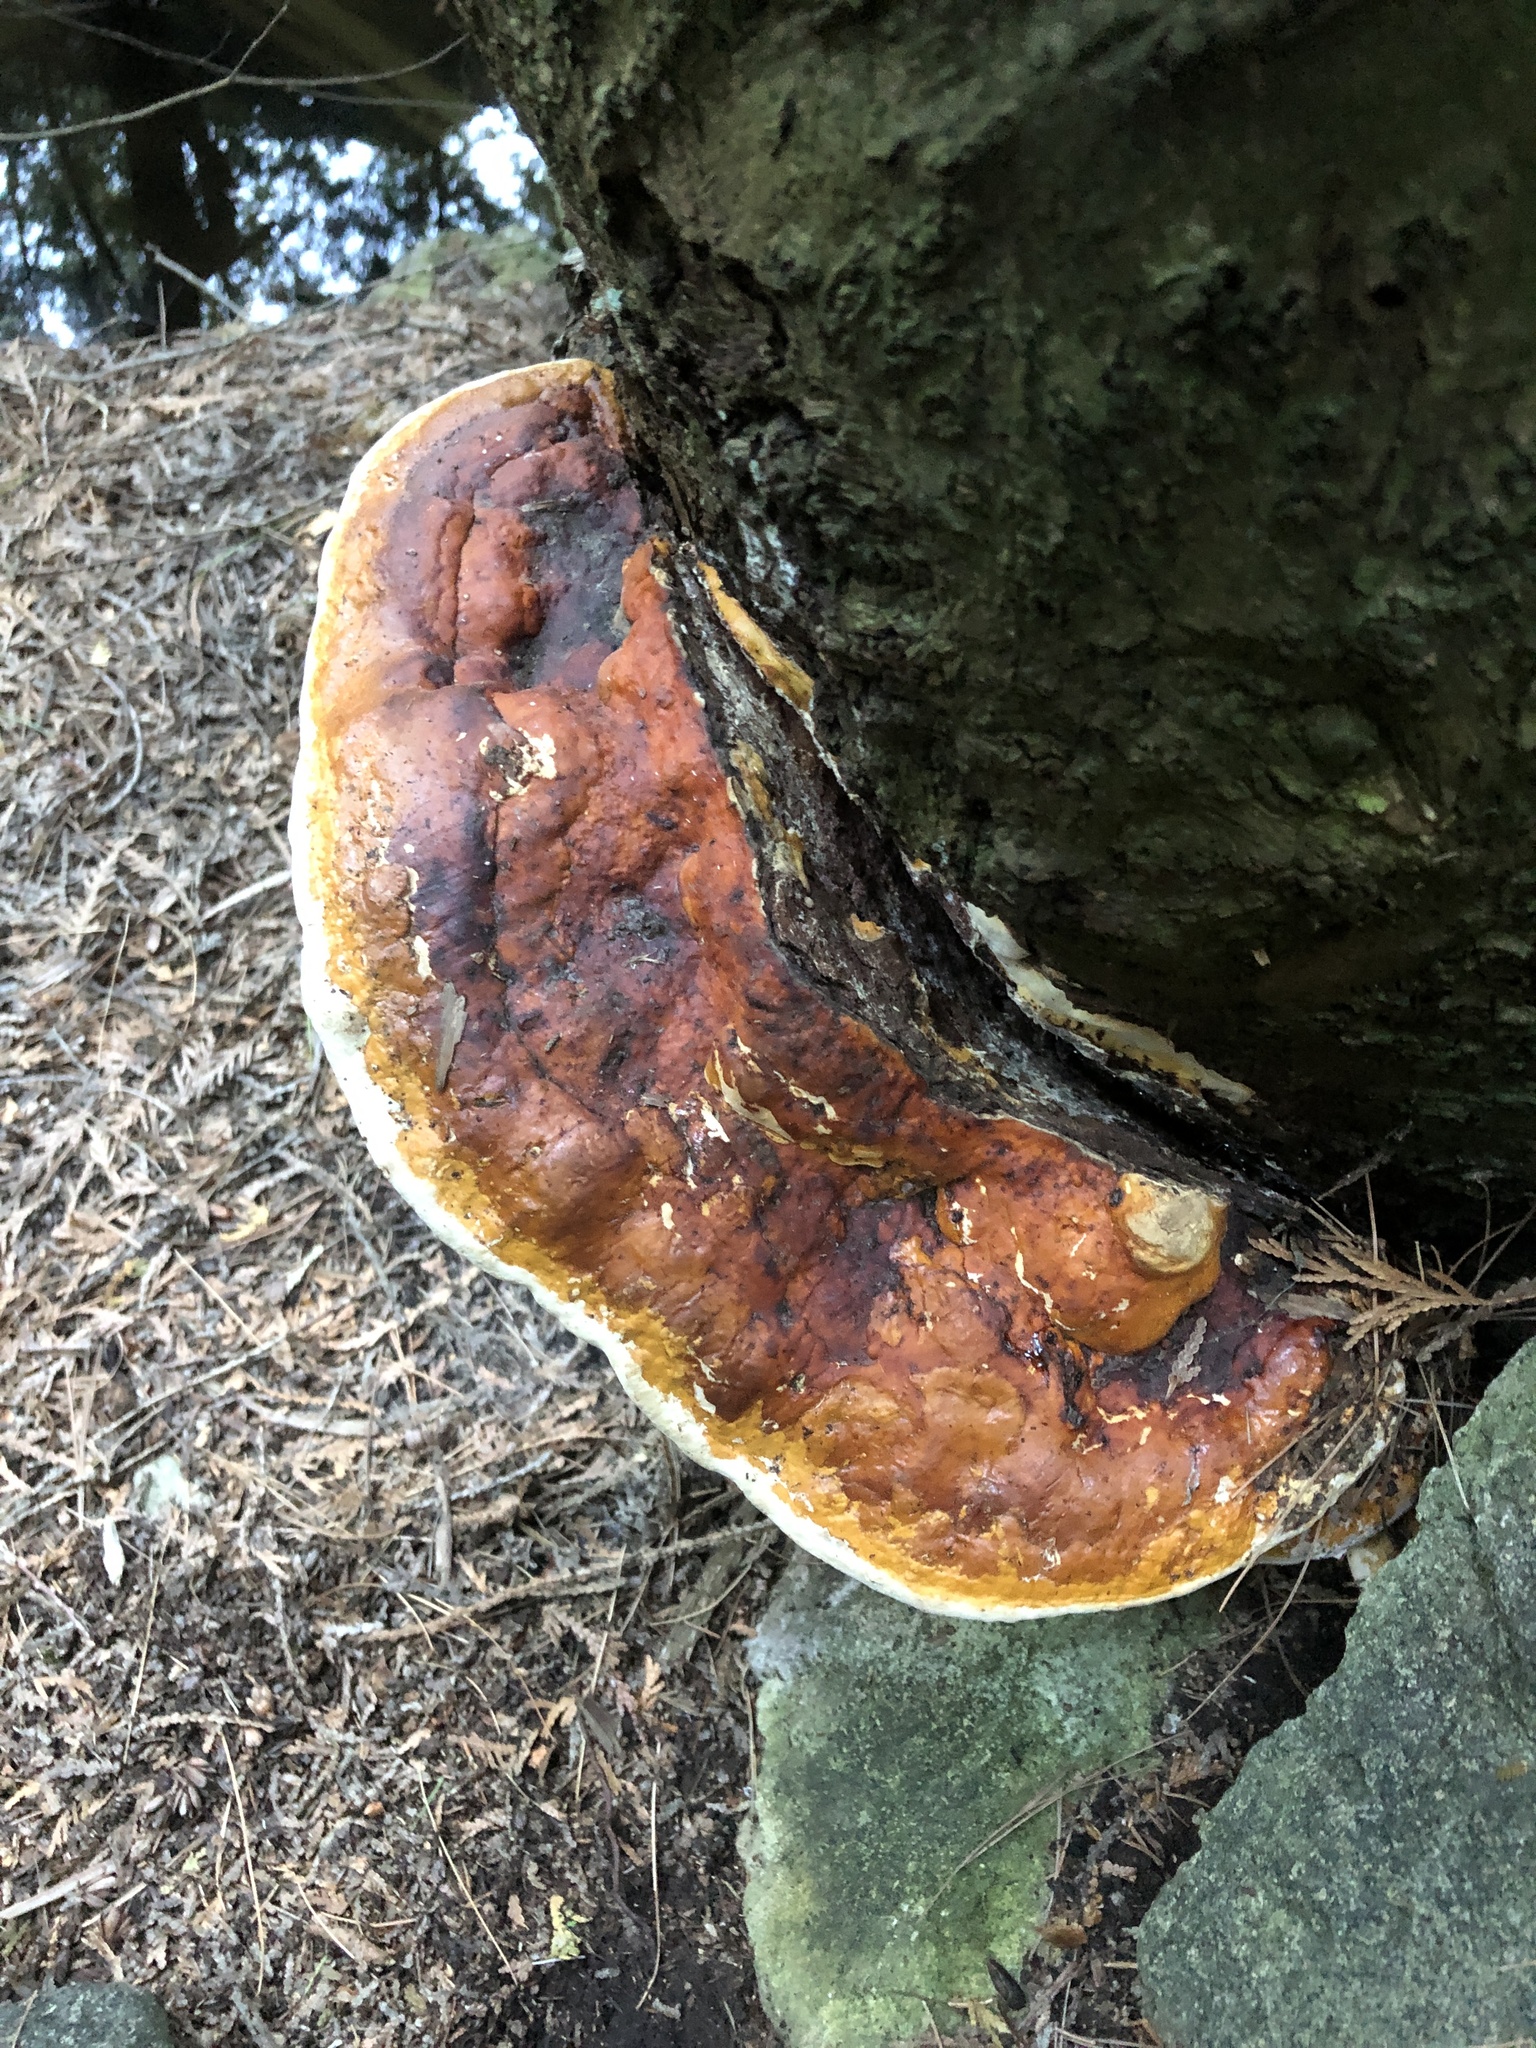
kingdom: Fungi
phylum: Basidiomycota
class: Agaricomycetes
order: Polyporales
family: Fomitopsidaceae
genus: Fomitopsis
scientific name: Fomitopsis mounceae
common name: Northern red belt
